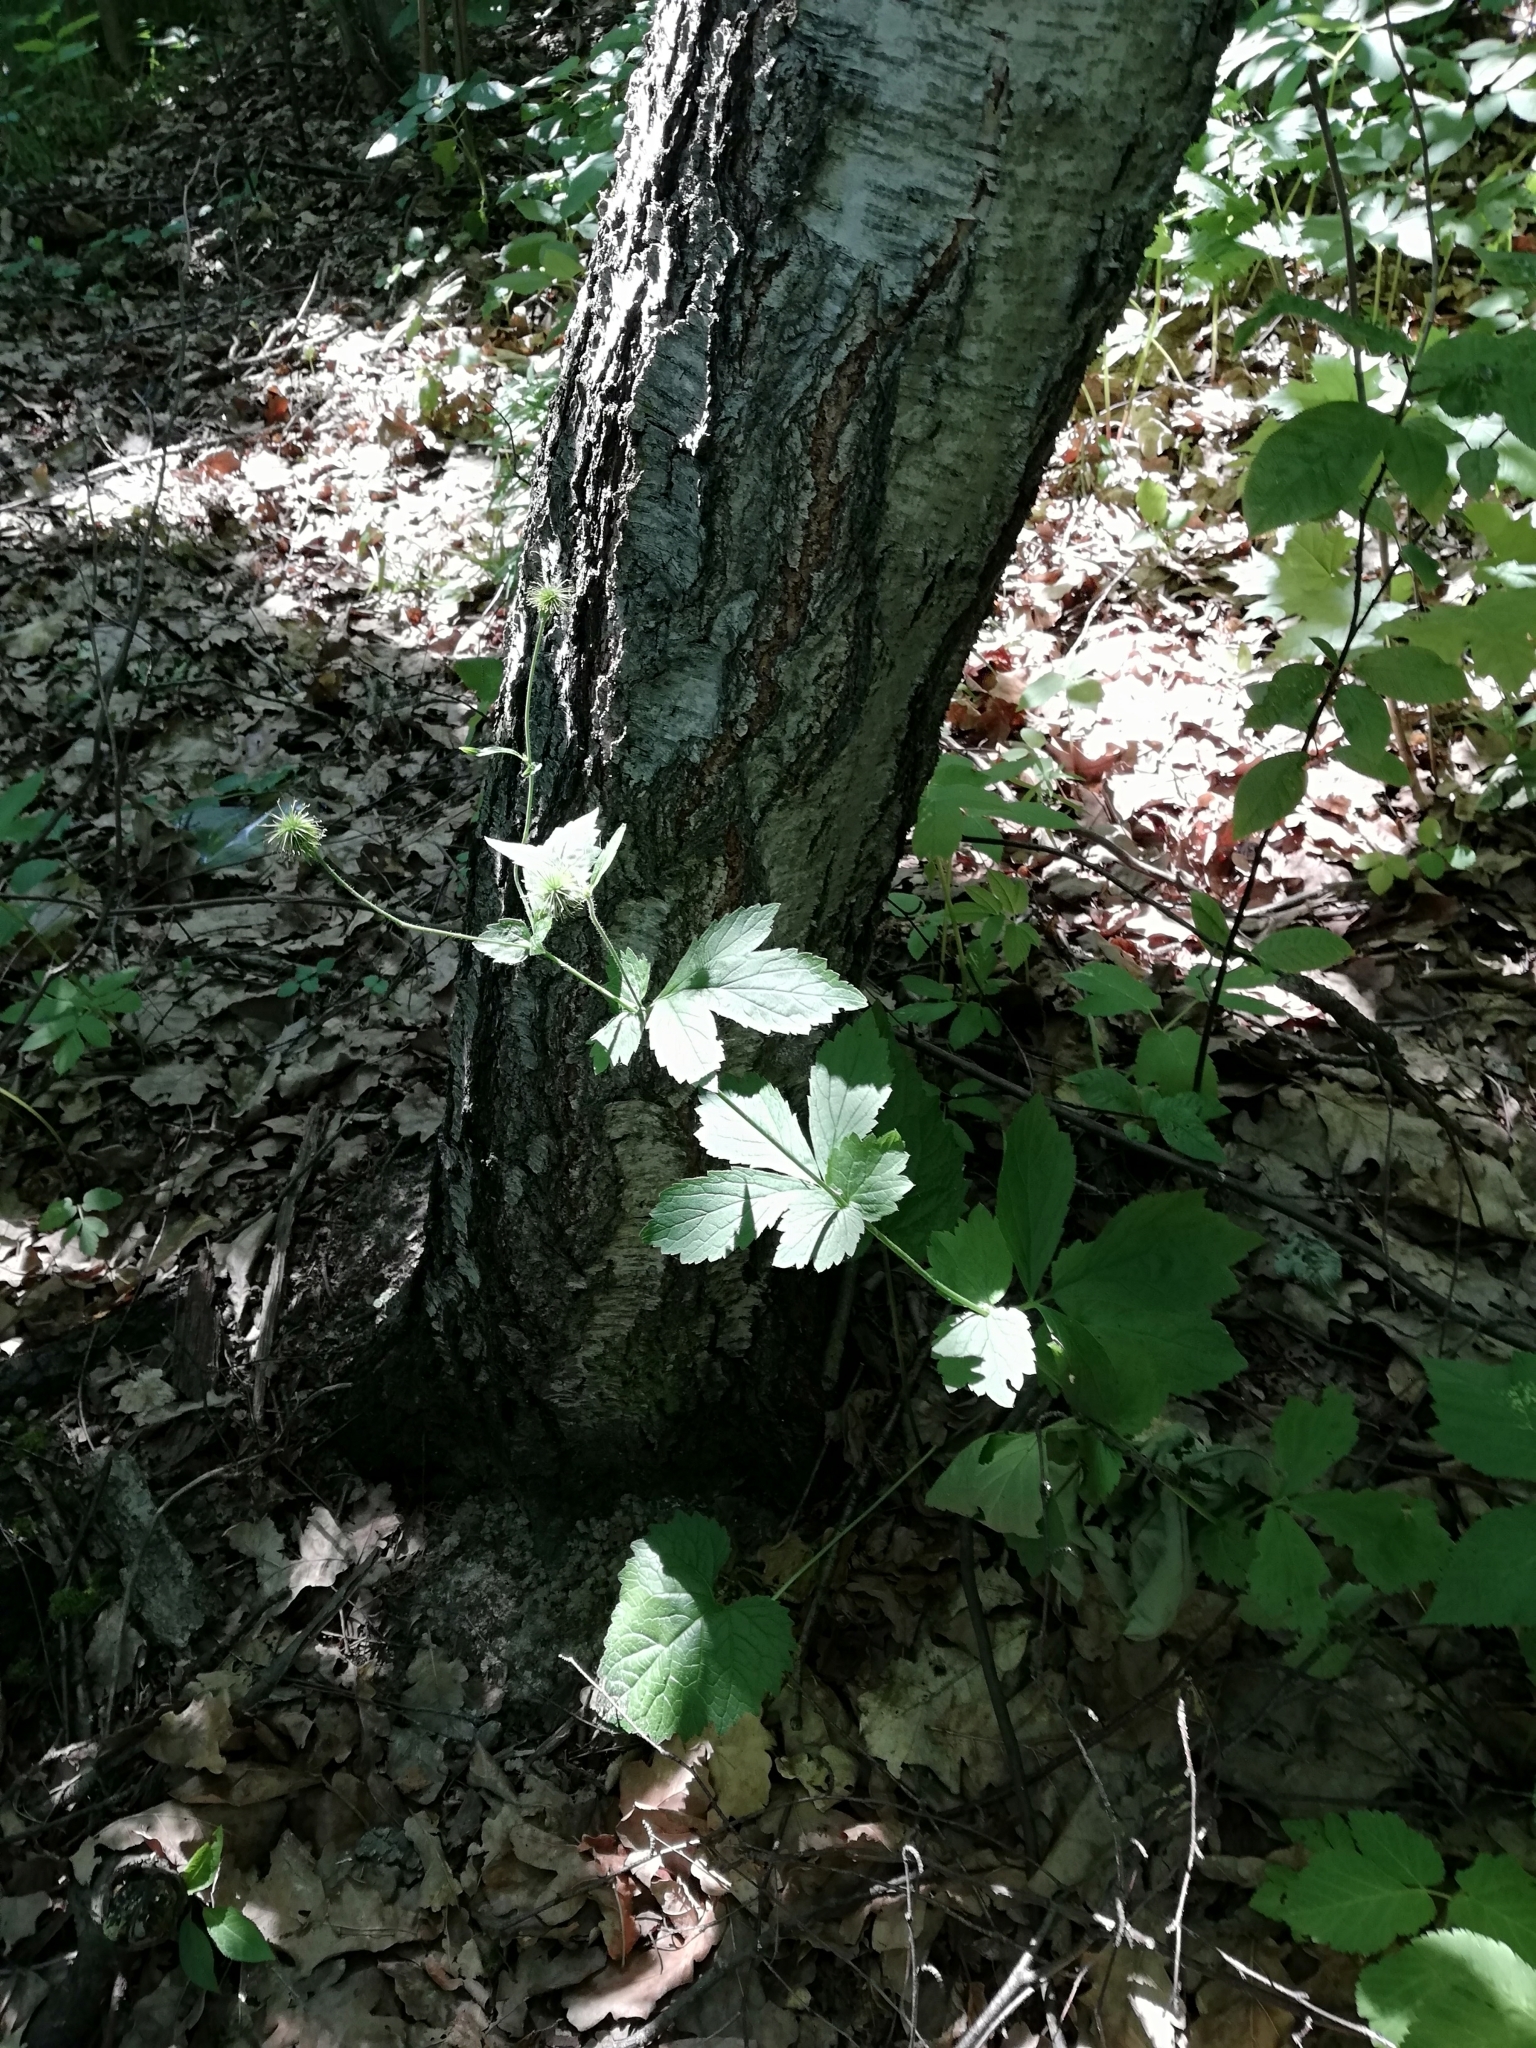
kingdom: Plantae
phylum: Tracheophyta
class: Magnoliopsida
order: Rosales
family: Rosaceae
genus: Geum
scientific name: Geum urbanum
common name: Wood avens
